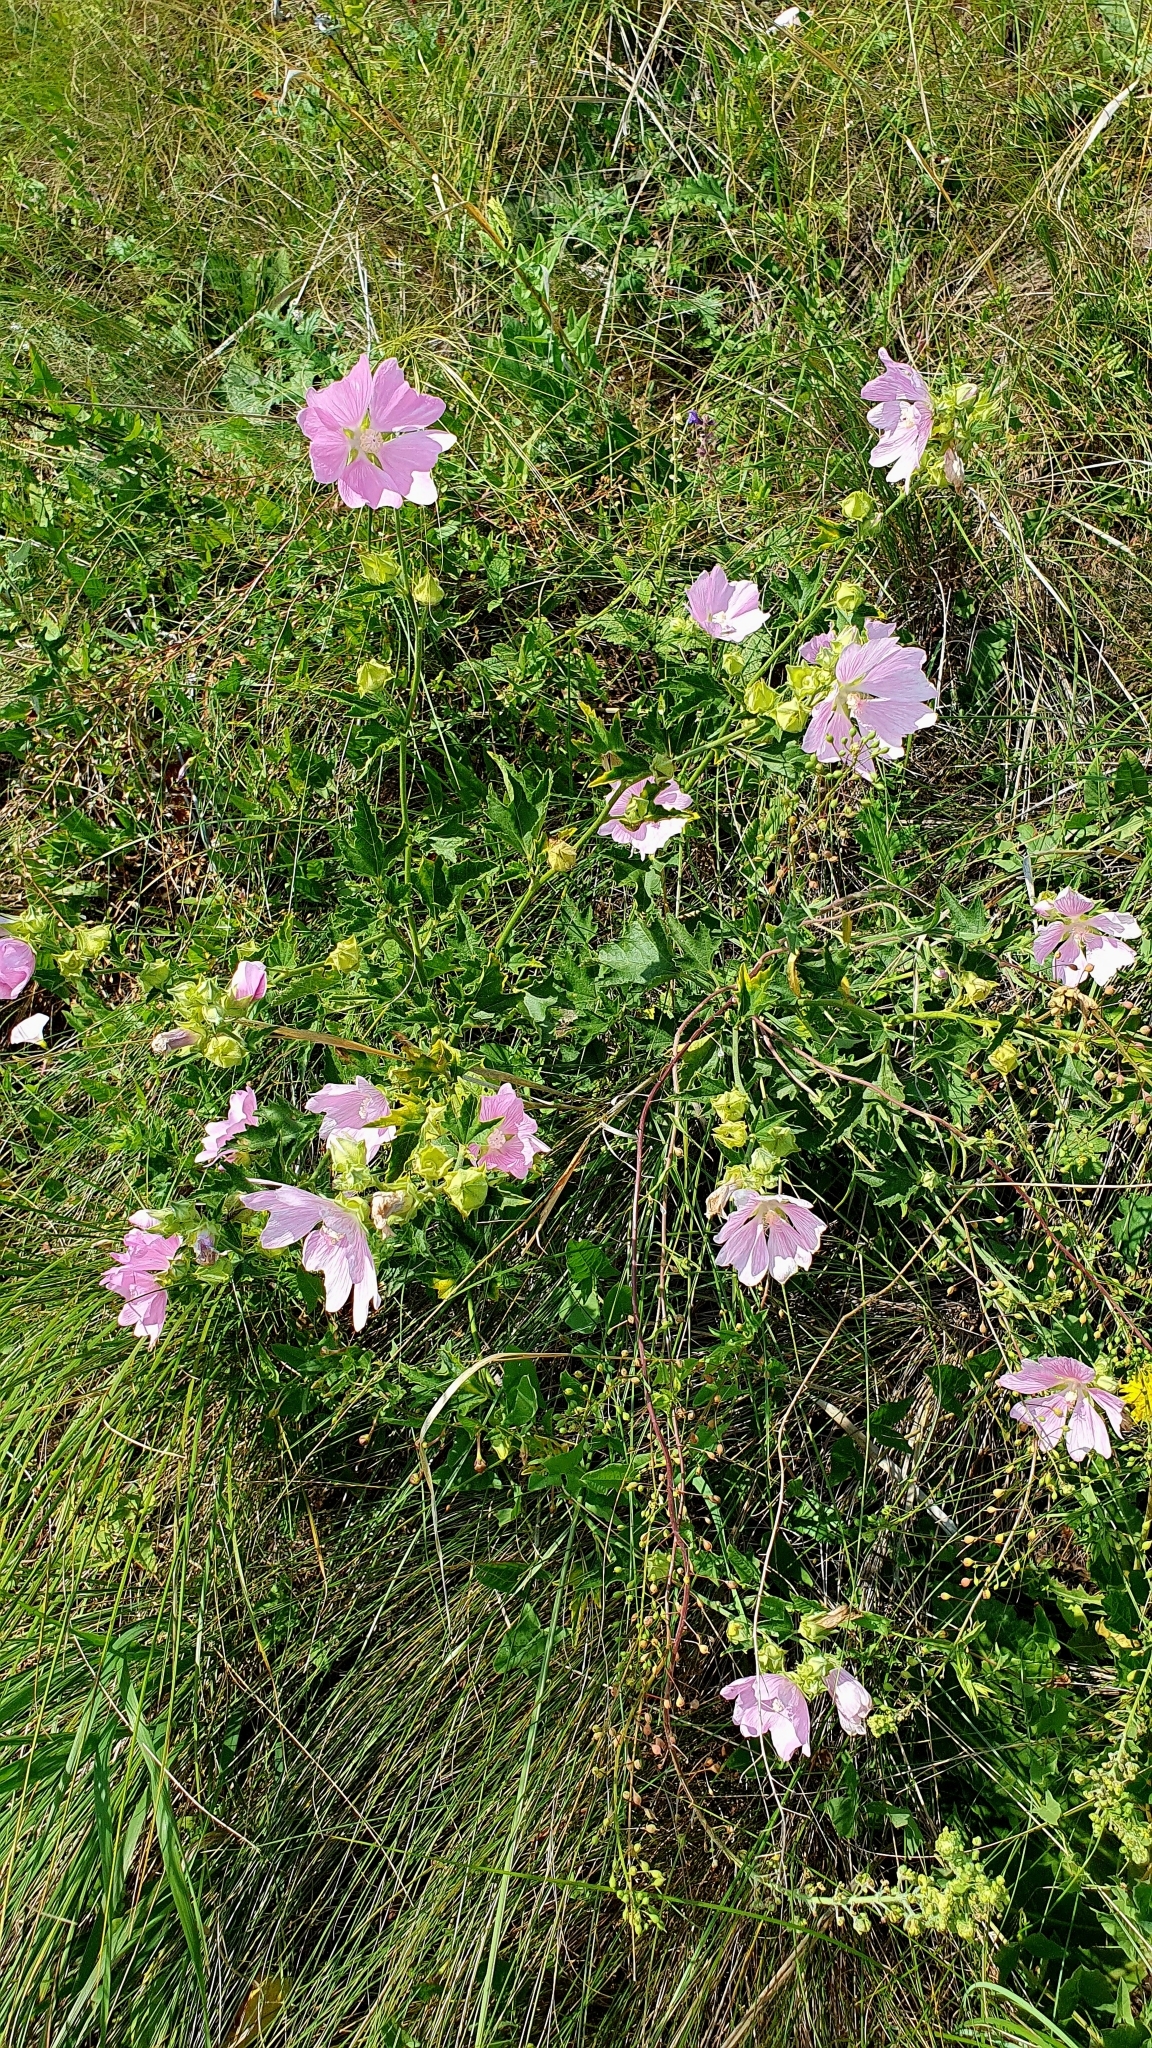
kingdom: Plantae
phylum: Tracheophyta
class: Magnoliopsida
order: Malvales
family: Malvaceae
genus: Malva
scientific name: Malva thuringiaca
